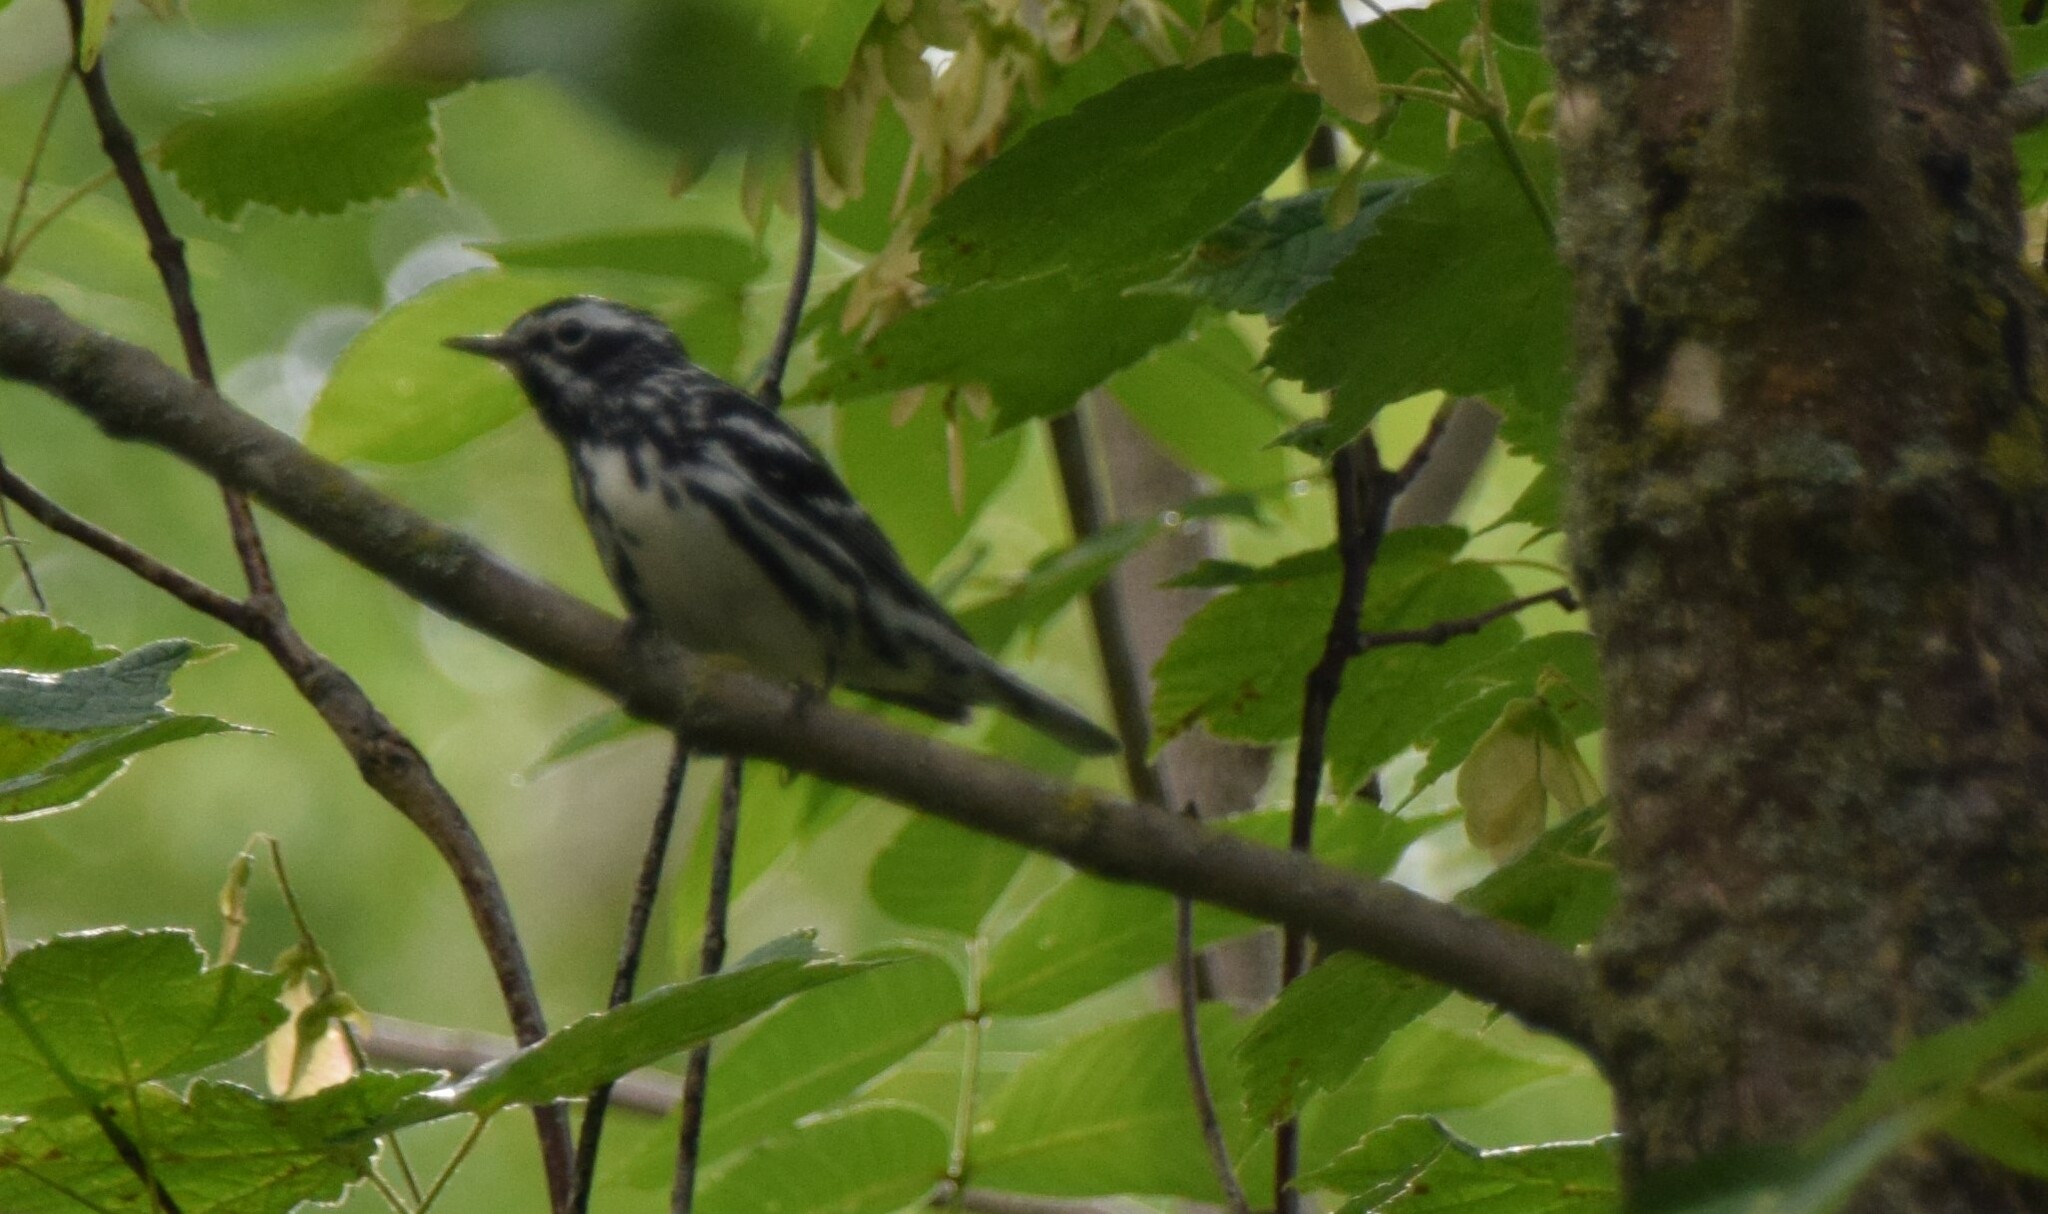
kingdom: Animalia
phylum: Chordata
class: Aves
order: Passeriformes
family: Parulidae
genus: Mniotilta
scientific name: Mniotilta varia
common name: Black-and-white warbler
